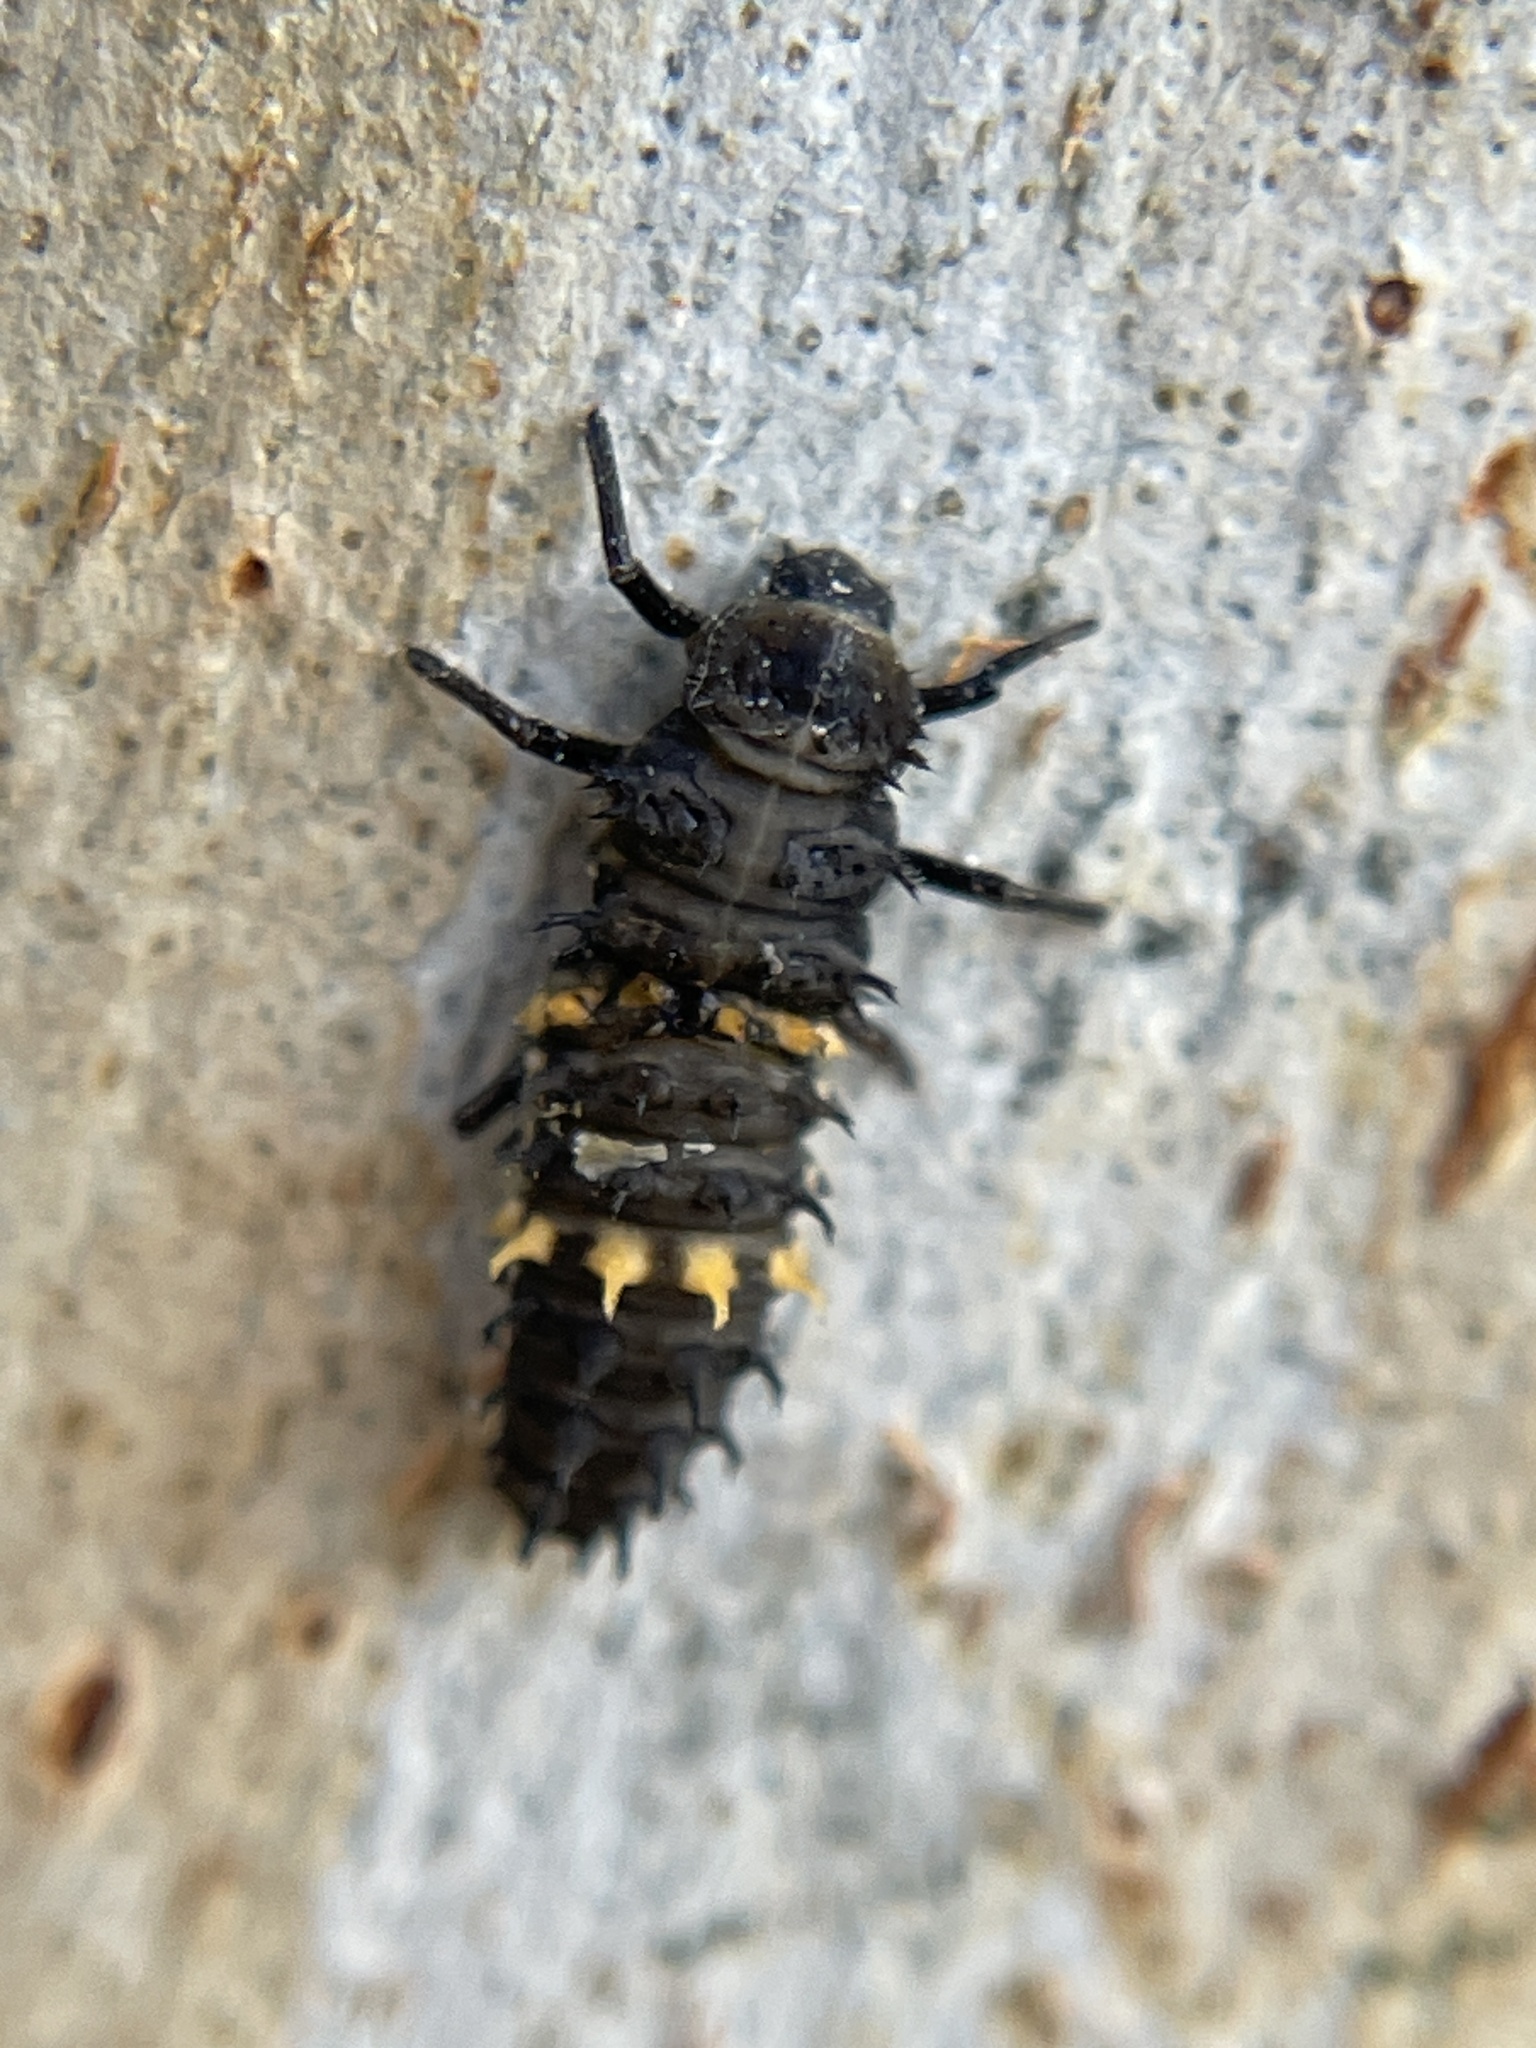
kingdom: Animalia
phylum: Arthropoda
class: Insecta
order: Coleoptera
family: Coccinellidae
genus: Harmonia
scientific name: Harmonia conformis
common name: Common spotted ladybird beetle
